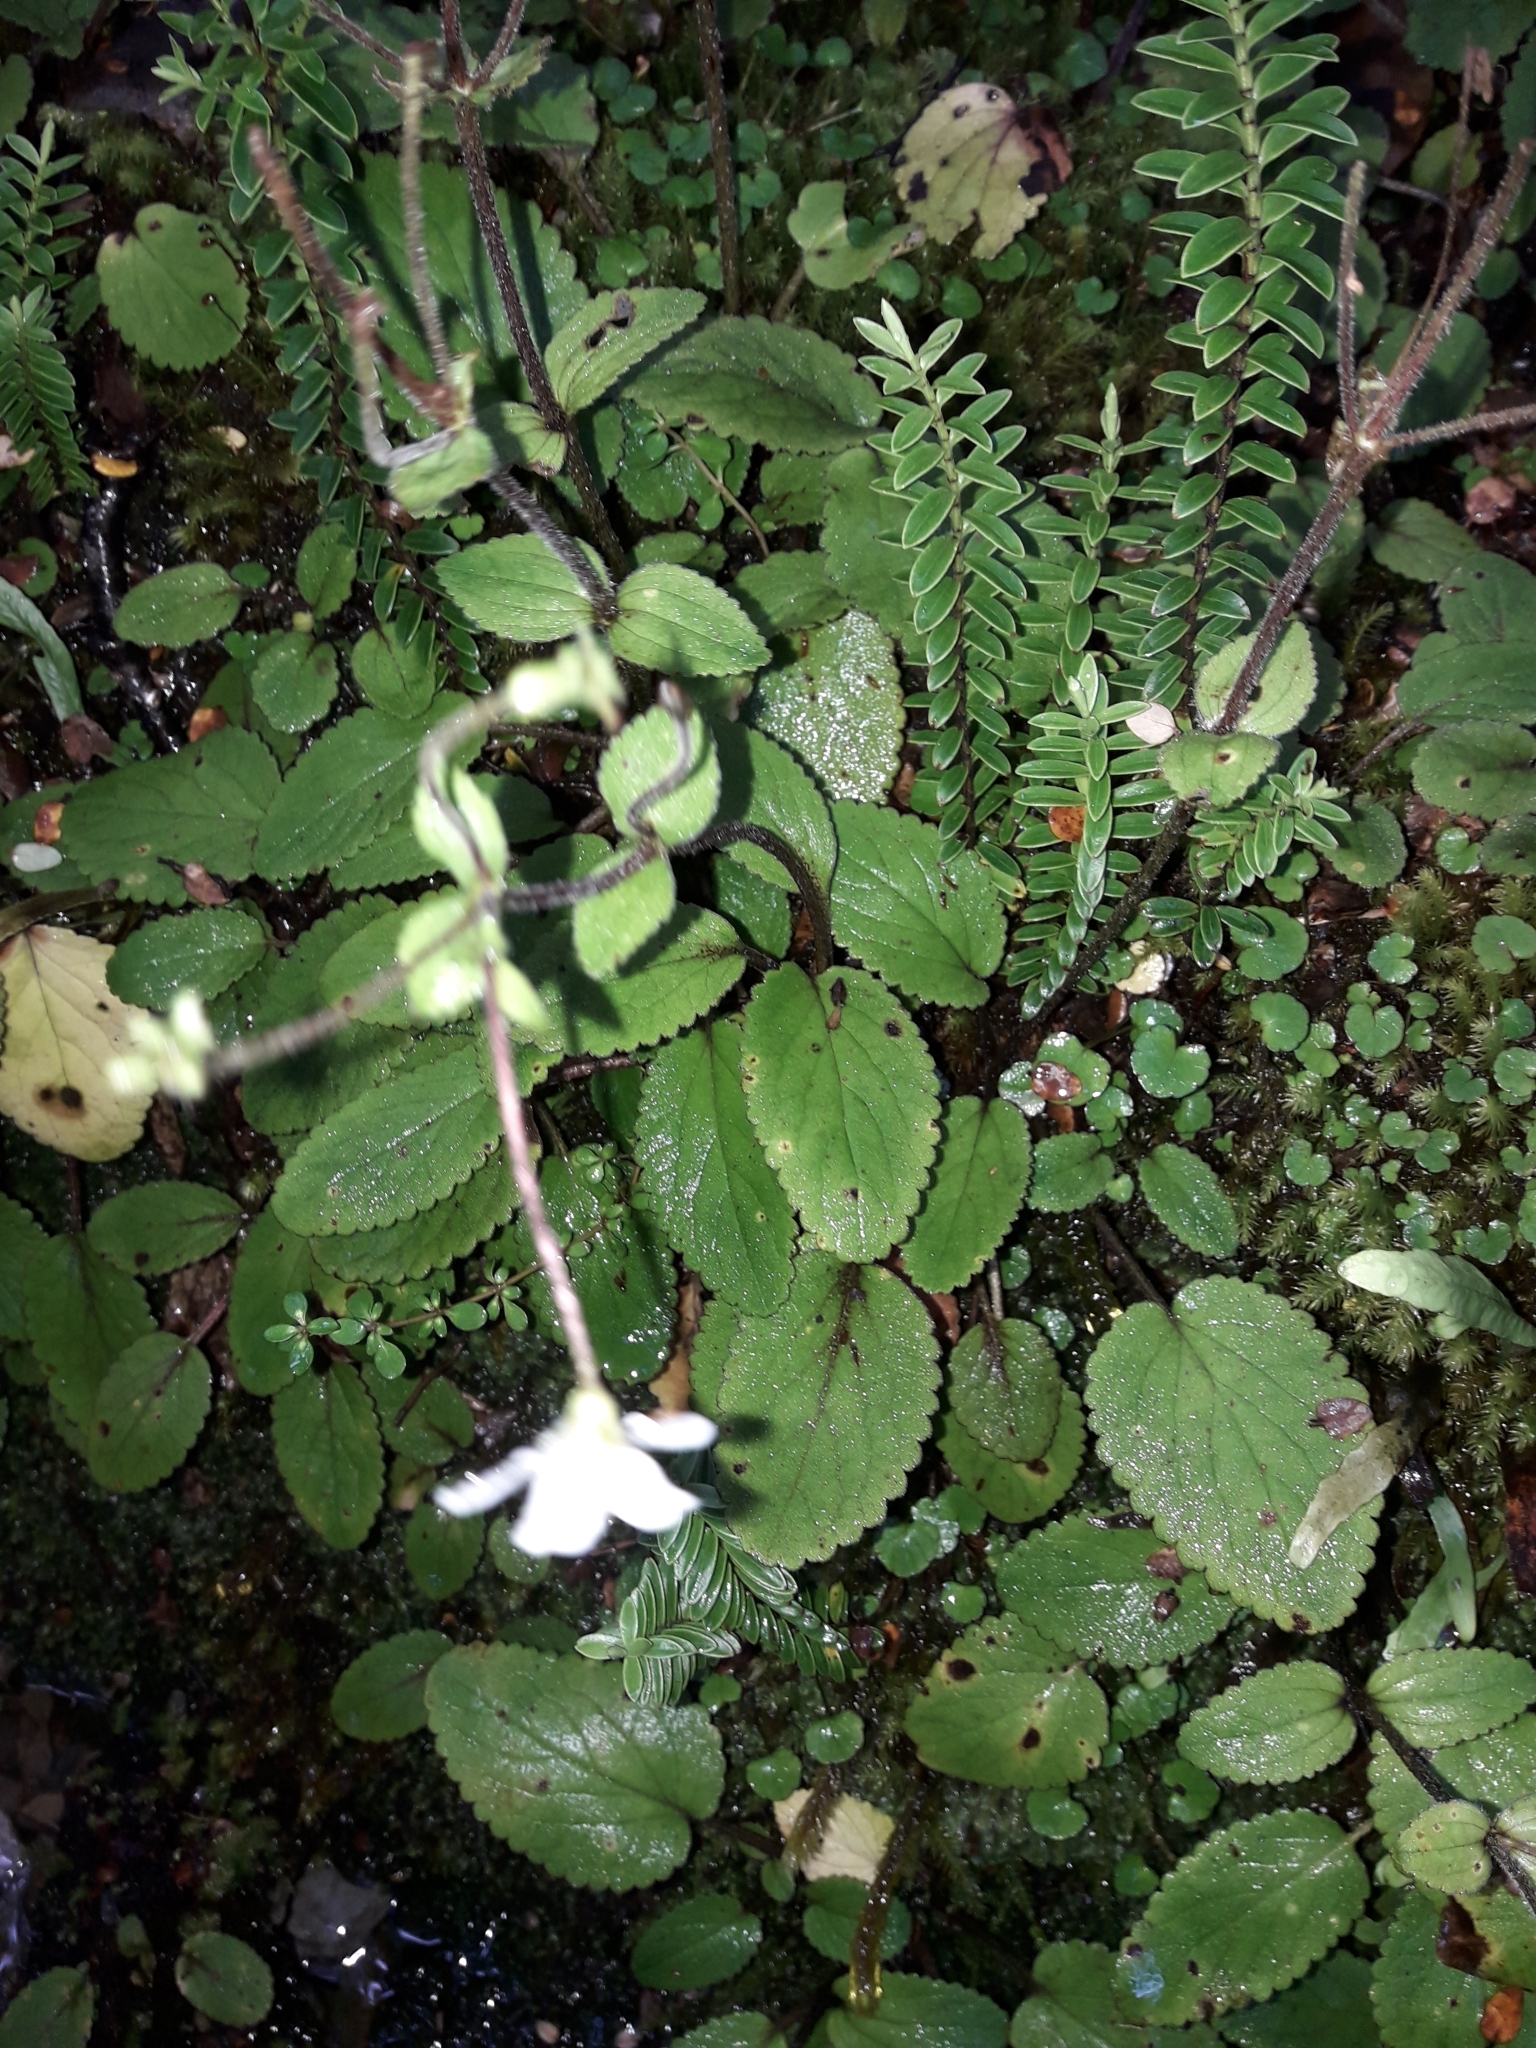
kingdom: Plantae
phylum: Tracheophyta
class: Magnoliopsida
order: Lamiales
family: Plantaginaceae
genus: Ourisia
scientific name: Ourisia macrophylla
